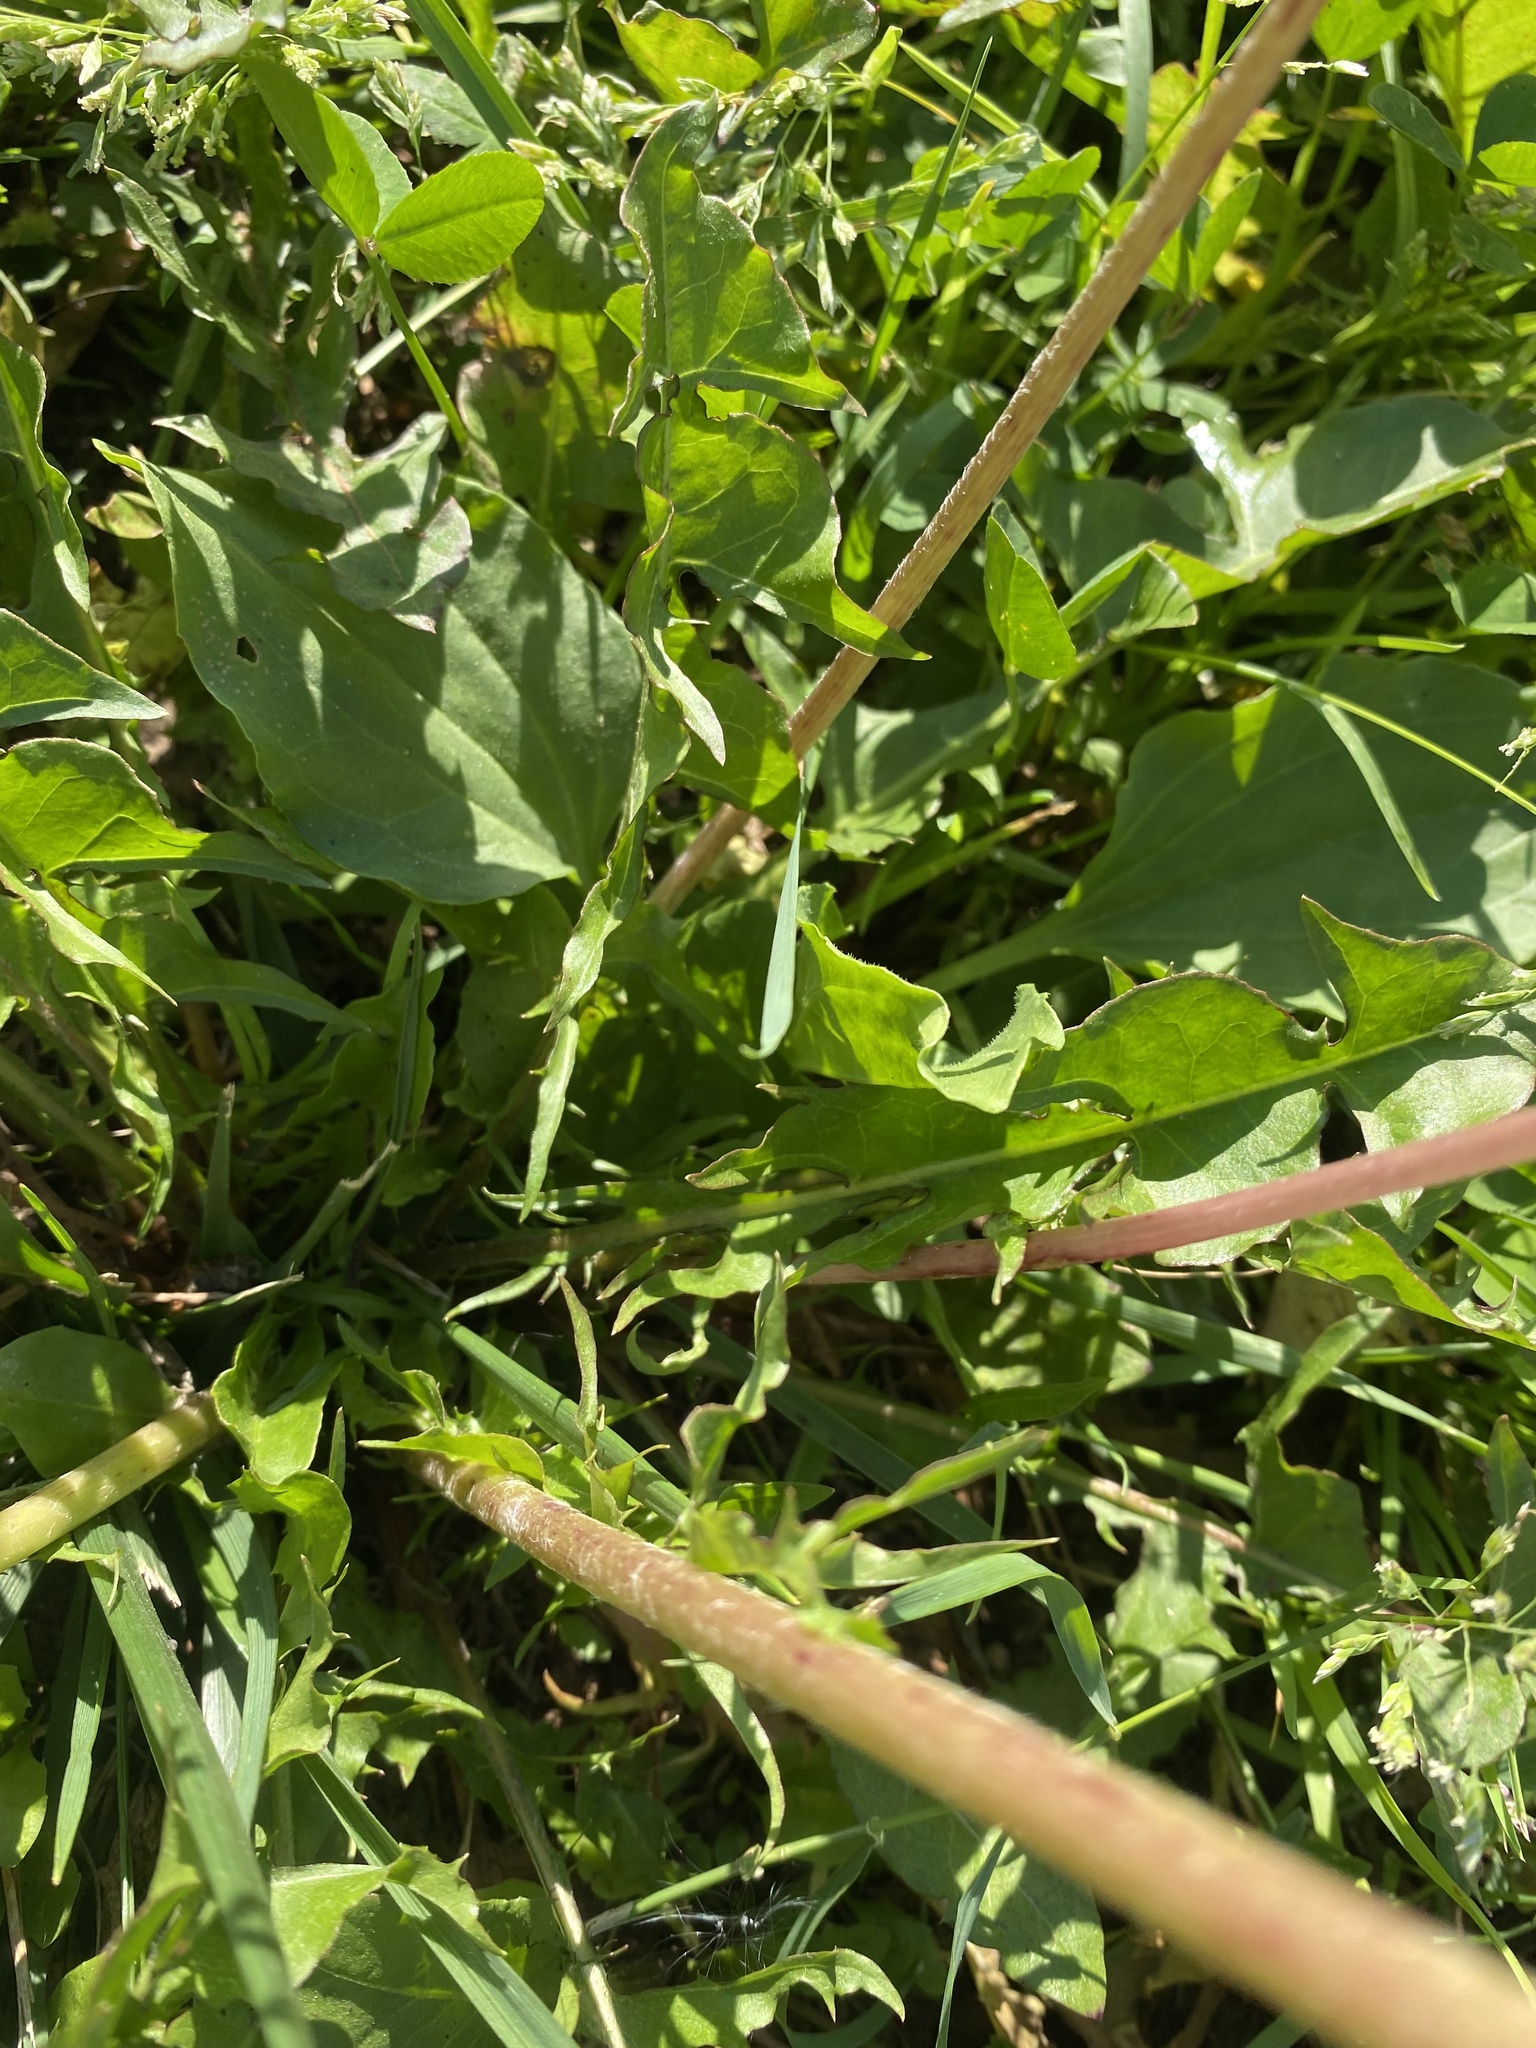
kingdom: Plantae
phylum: Tracheophyta
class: Magnoliopsida
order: Asterales
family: Asteraceae
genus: Taraxacum
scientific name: Taraxacum officinale
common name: Common dandelion
